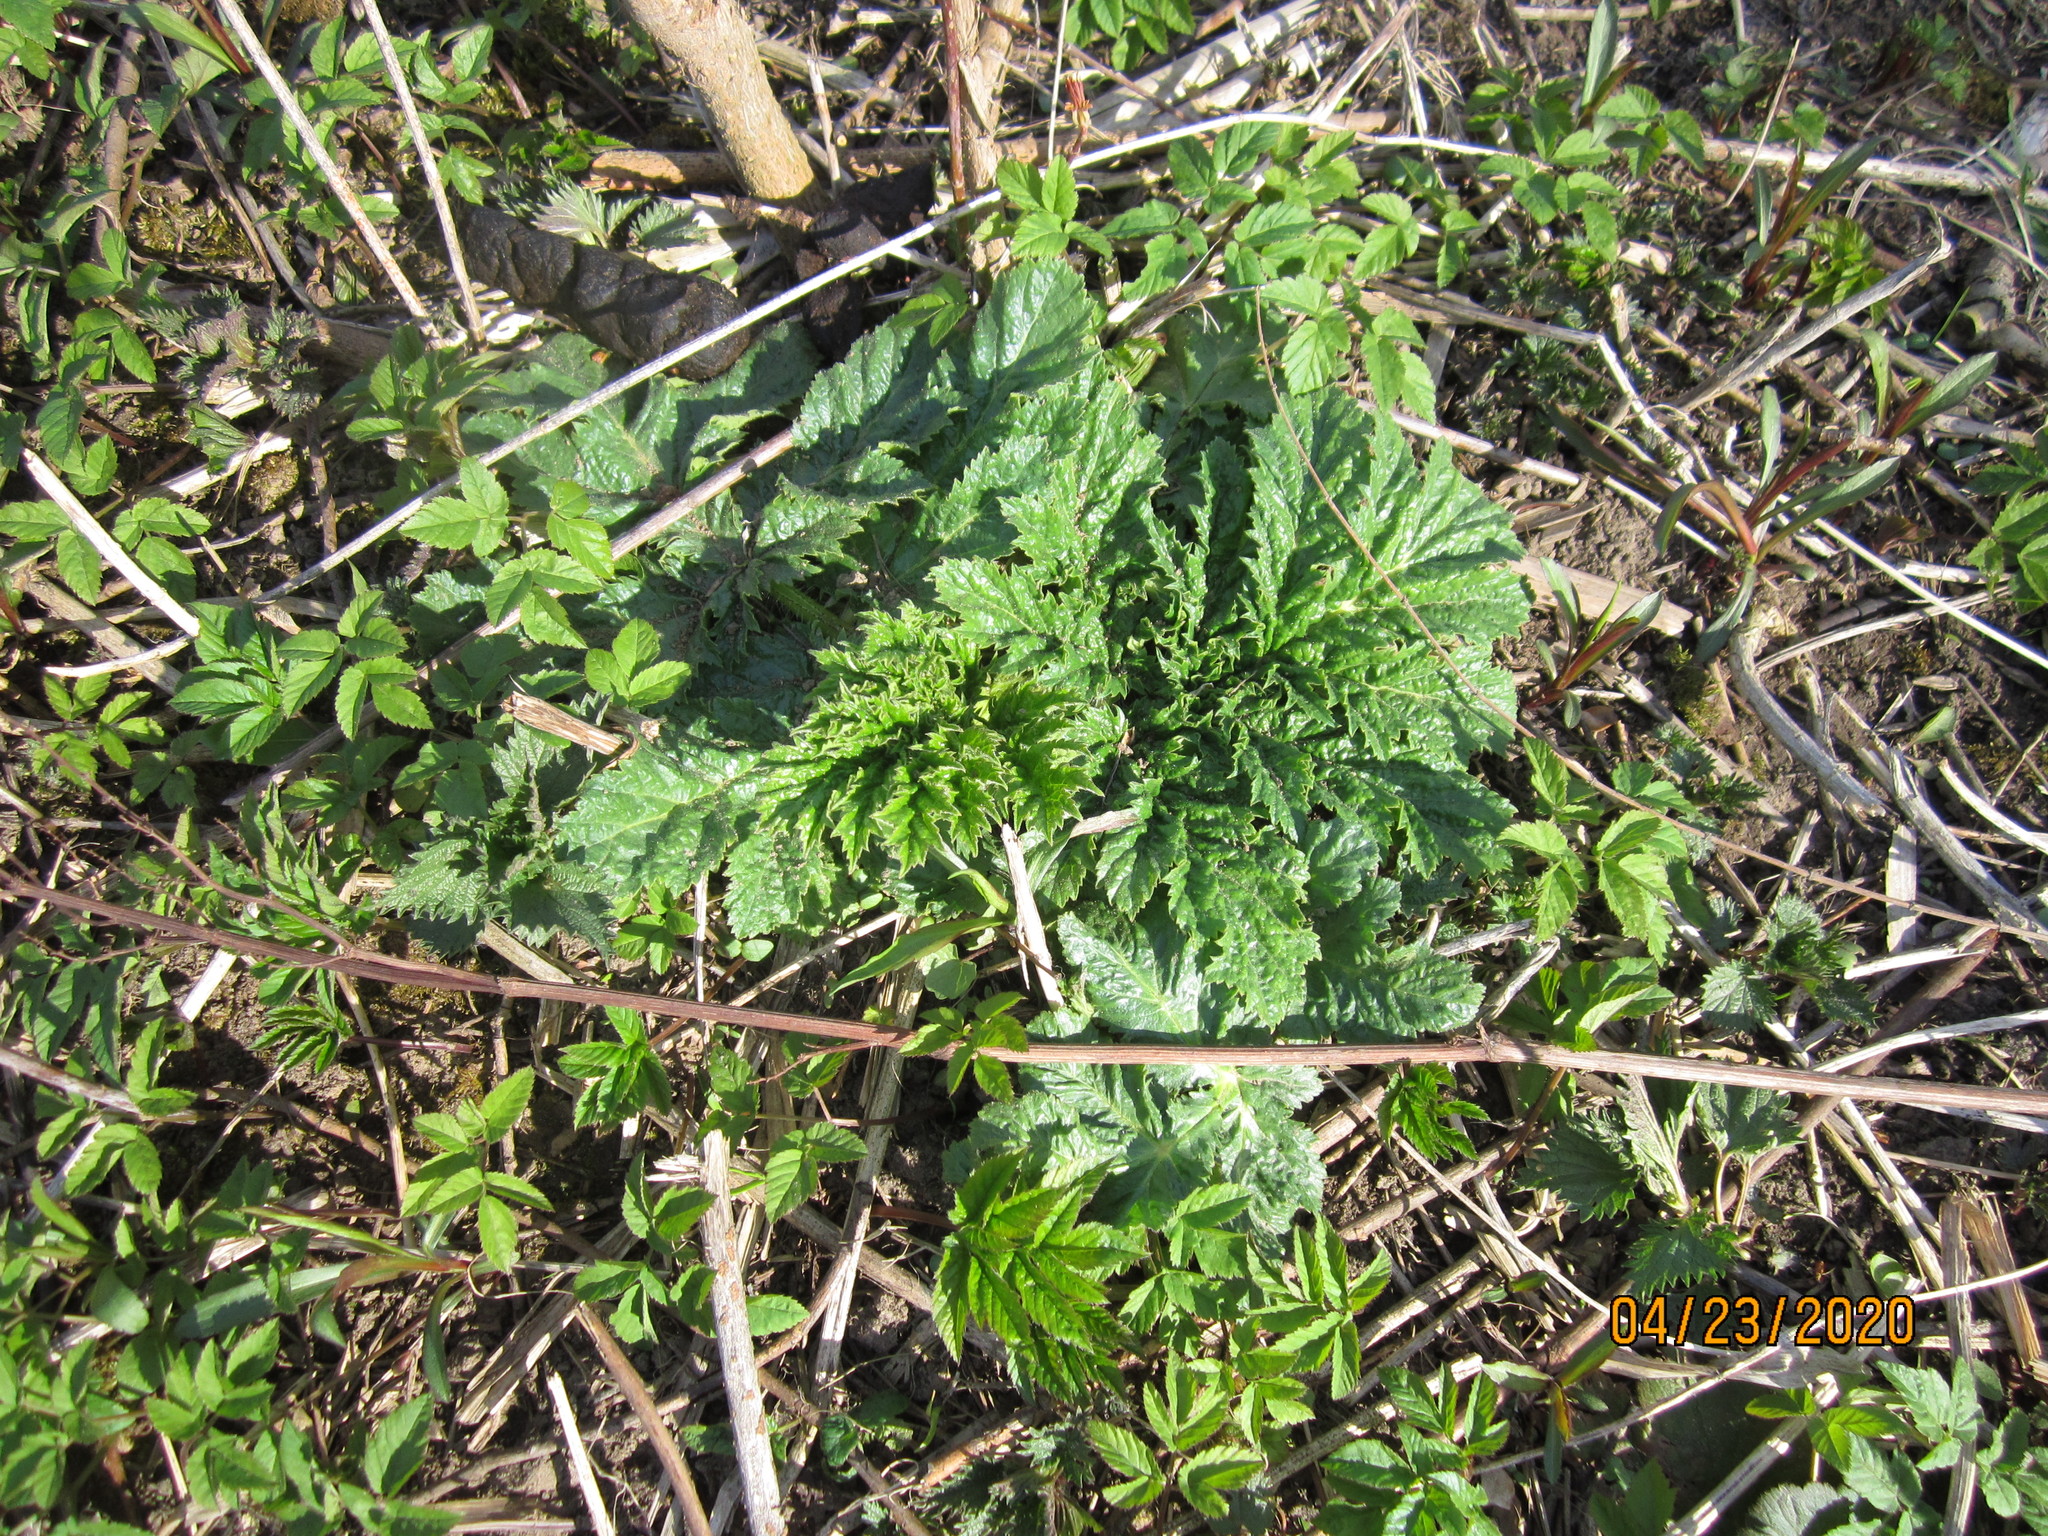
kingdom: Plantae
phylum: Tracheophyta
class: Magnoliopsida
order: Apiales
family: Apiaceae
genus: Heracleum
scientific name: Heracleum sosnowskyi
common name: Sosnowsky's hogweed
